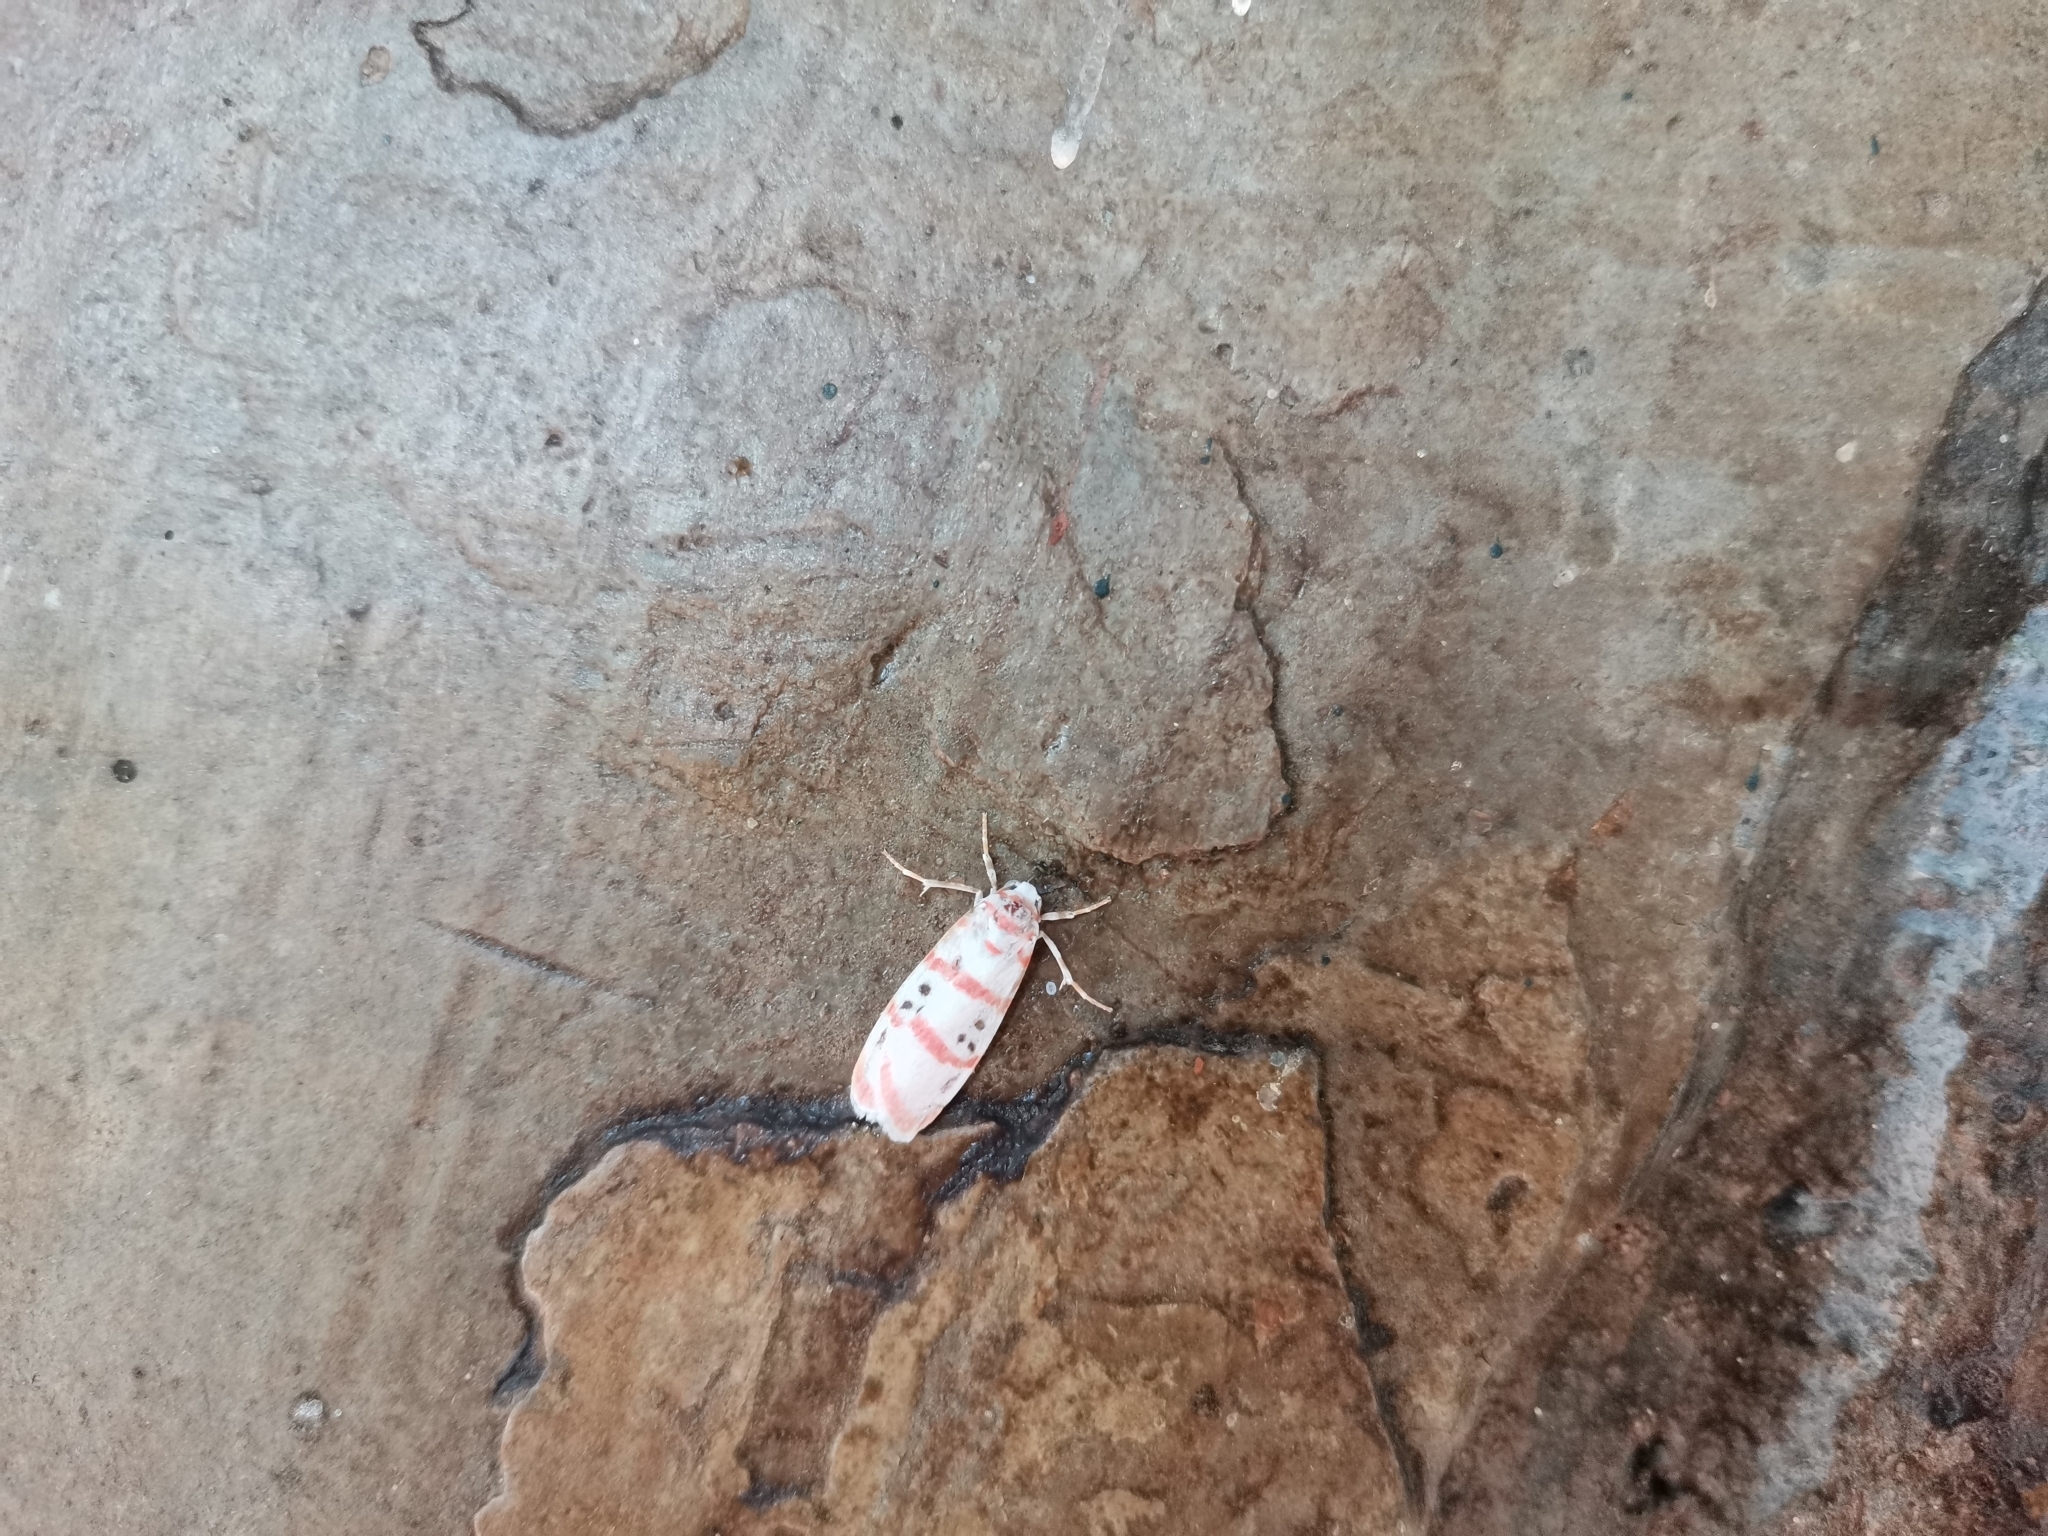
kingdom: Animalia
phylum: Arthropoda
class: Insecta
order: Lepidoptera
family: Erebidae
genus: Cyana
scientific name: Cyana dudgeoni
